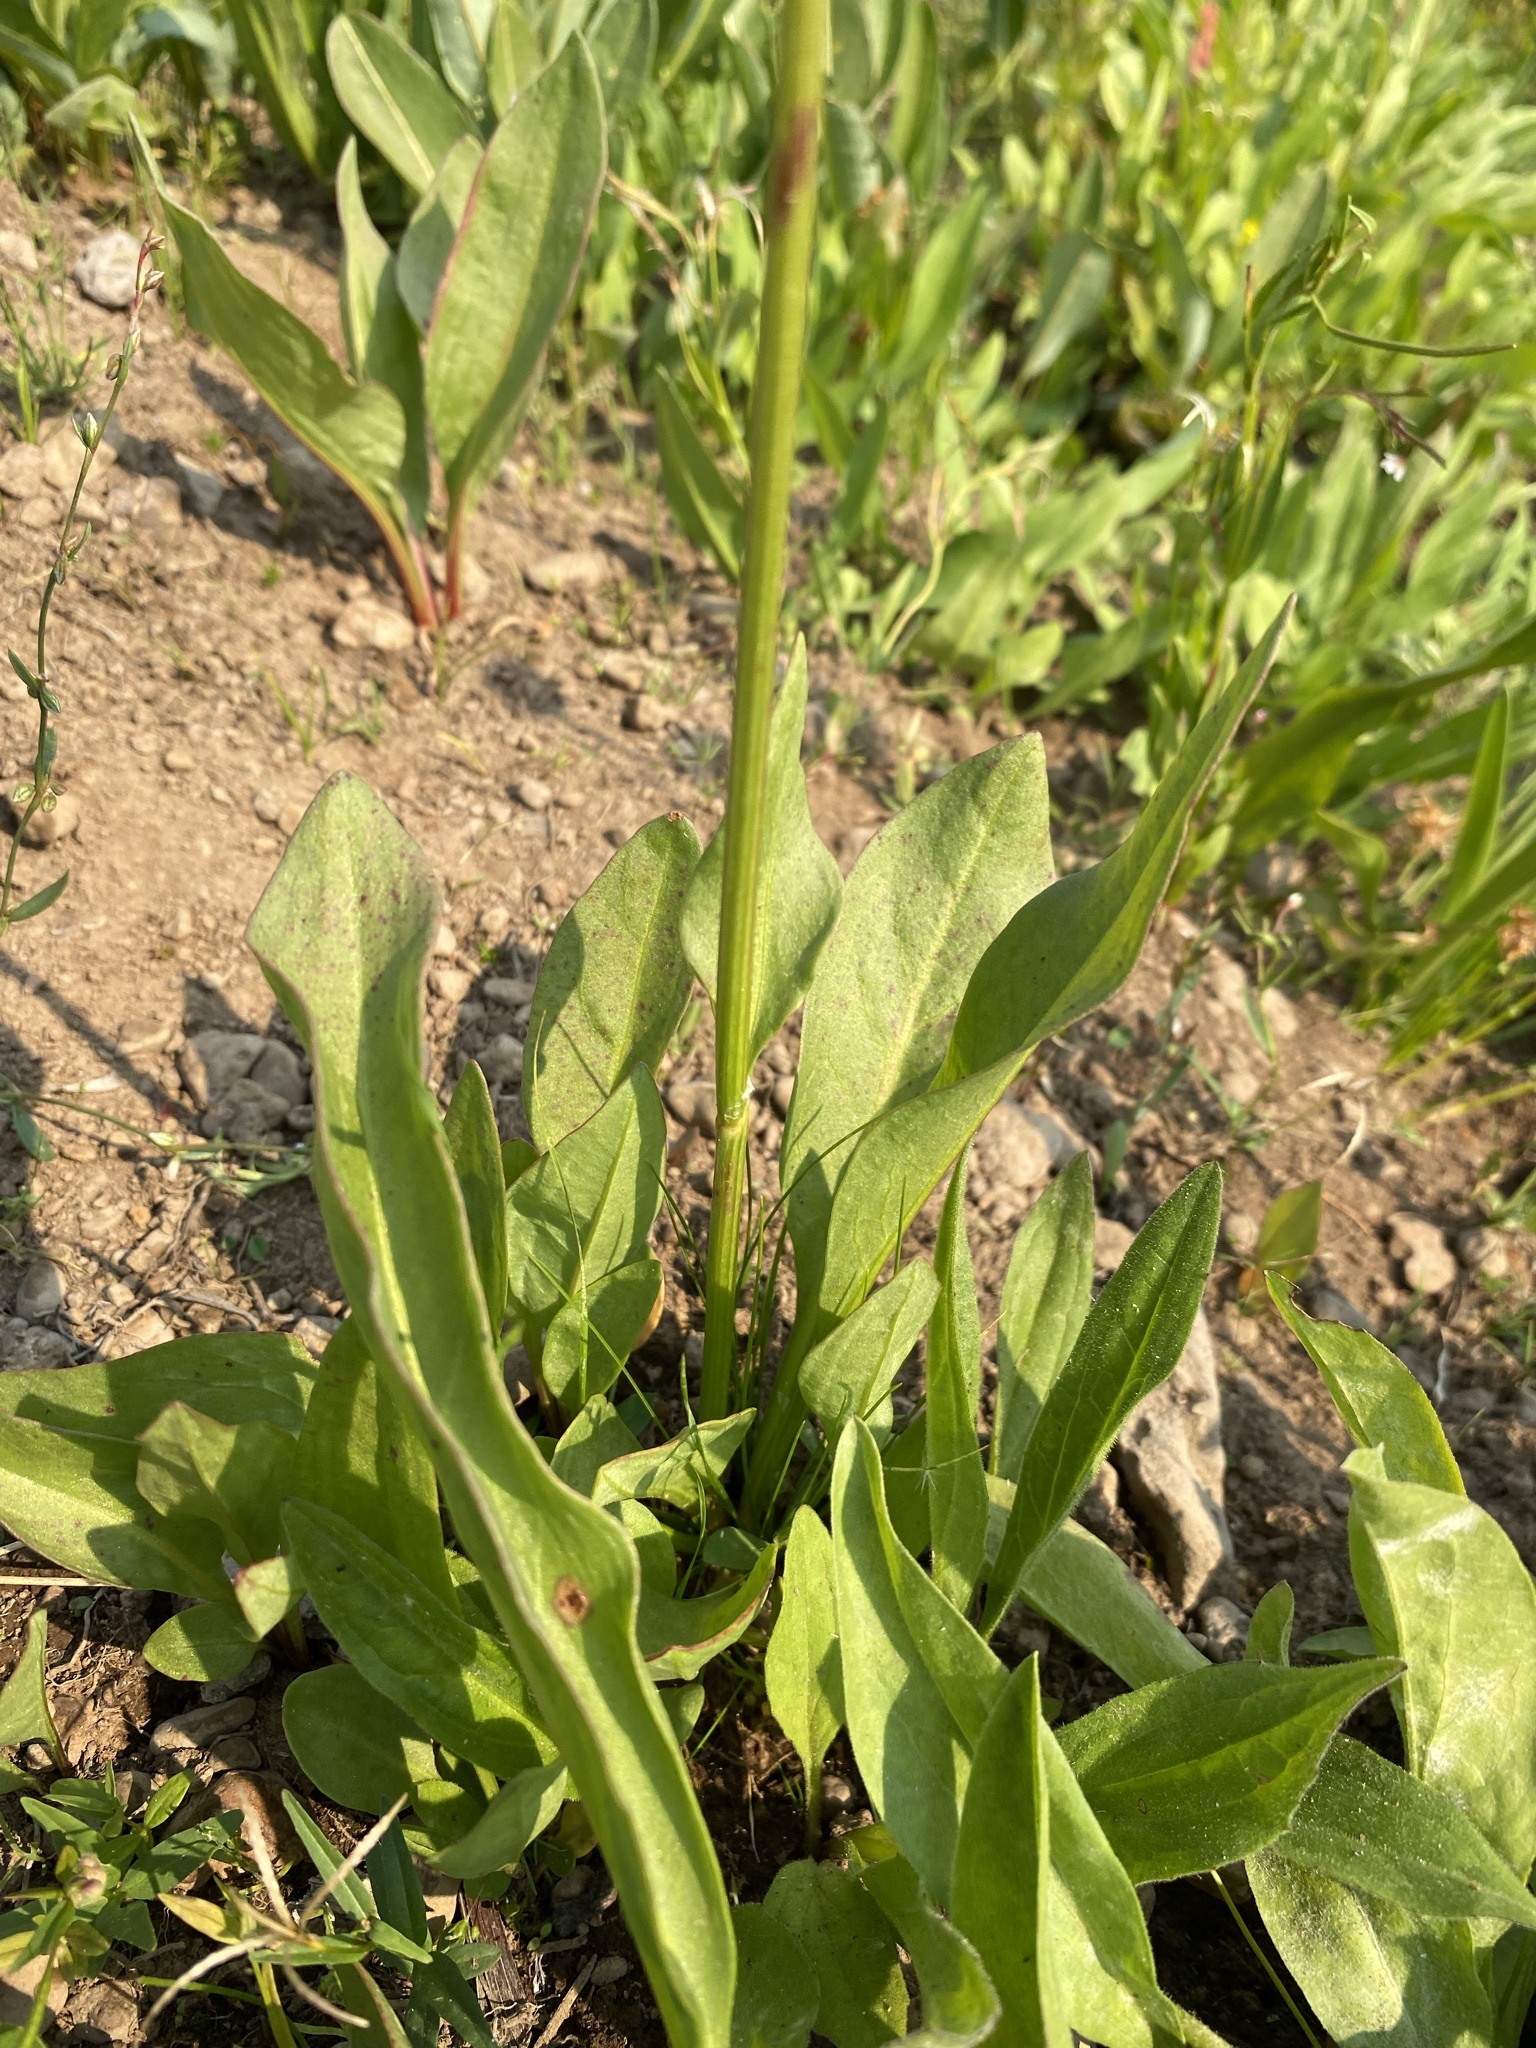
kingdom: Plantae
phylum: Tracheophyta
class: Magnoliopsida
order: Caryophyllales
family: Polygonaceae
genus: Rumex
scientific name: Rumex paucifolius
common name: Alpine sheep sorrel
